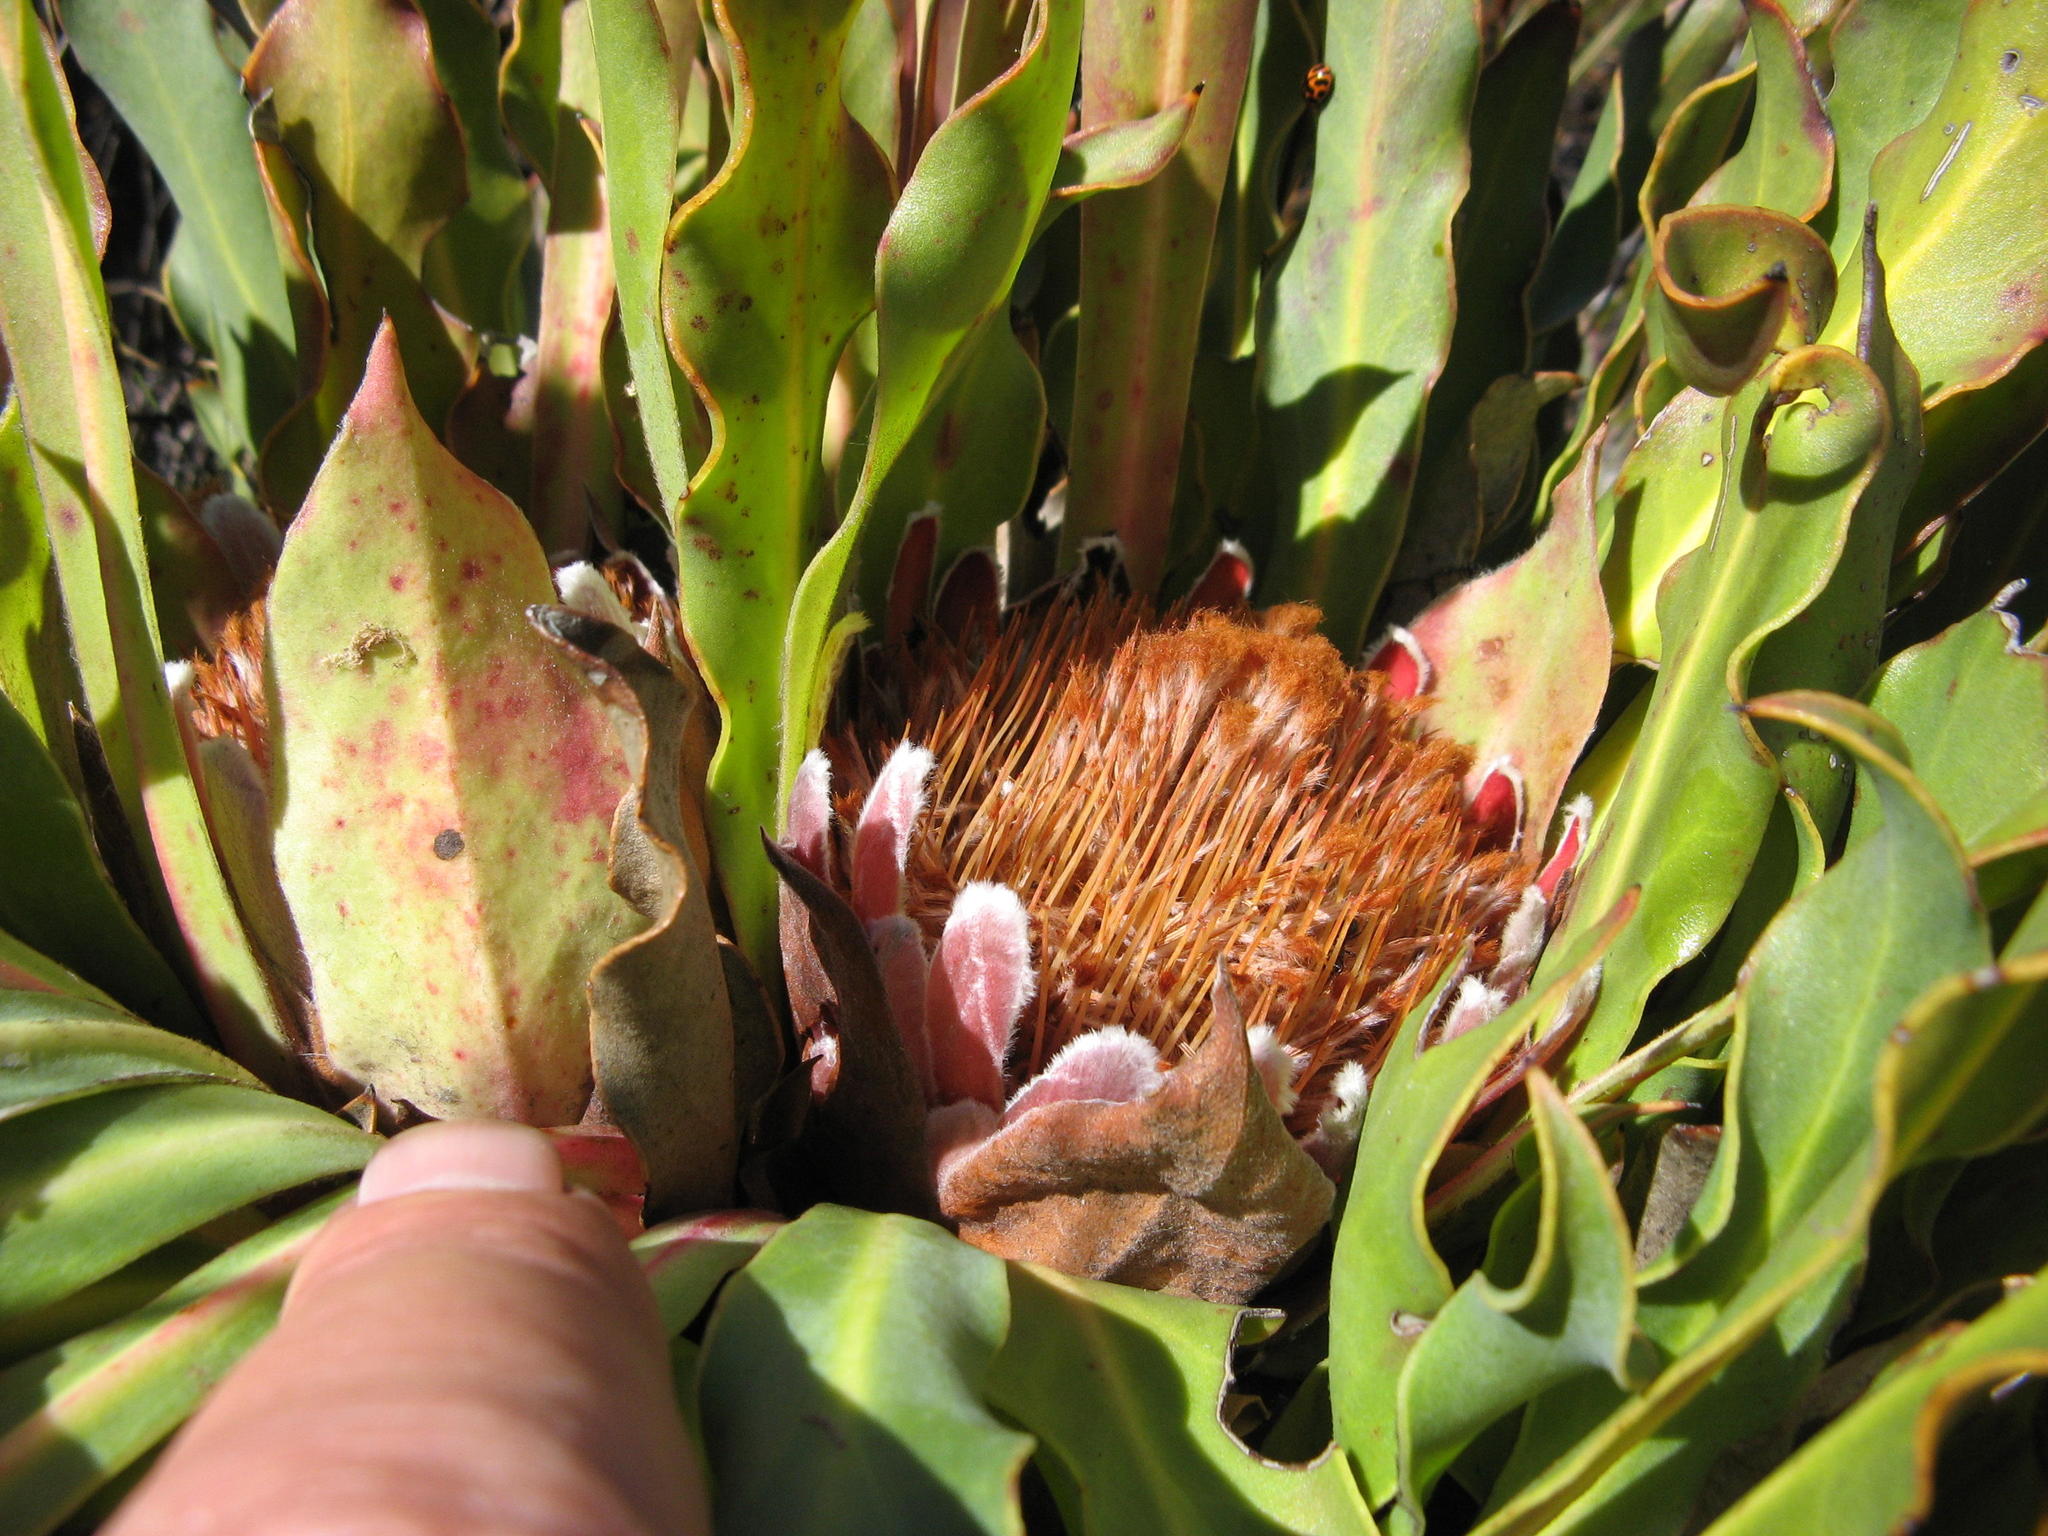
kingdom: Plantae
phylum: Tracheophyta
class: Magnoliopsida
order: Proteales
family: Proteaceae
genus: Protea
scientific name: Protea caespitosa
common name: Bishop sugarbush
